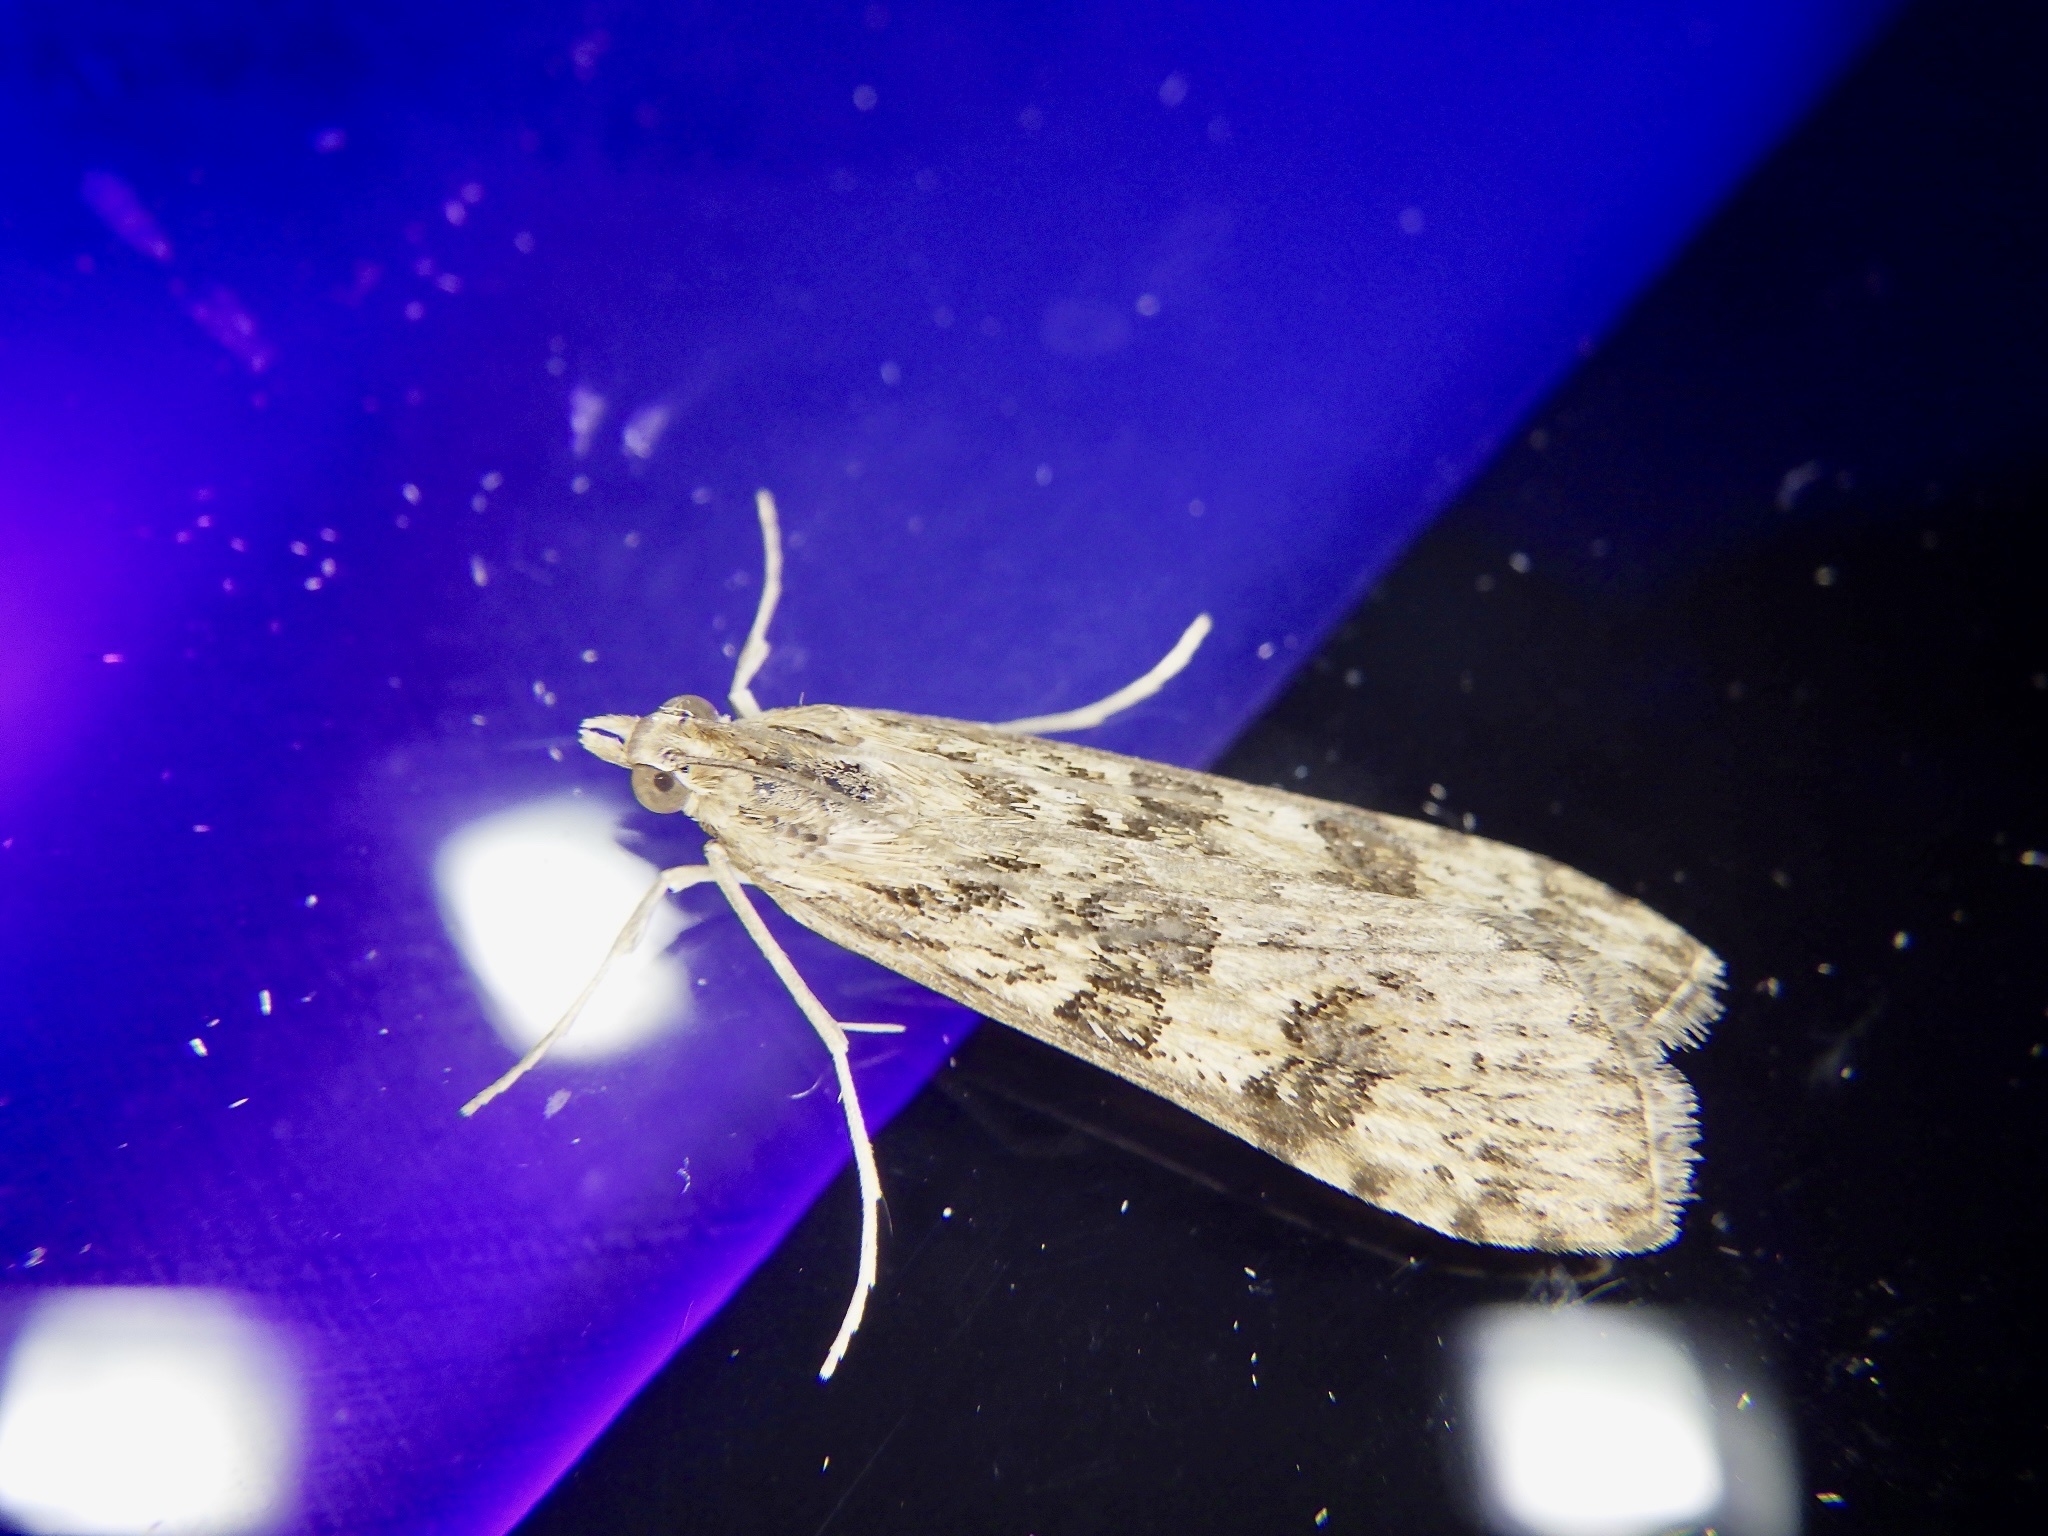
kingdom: Animalia
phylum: Arthropoda
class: Insecta
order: Lepidoptera
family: Crambidae
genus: Nomophila
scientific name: Nomophila noctuella
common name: Rush veneer
